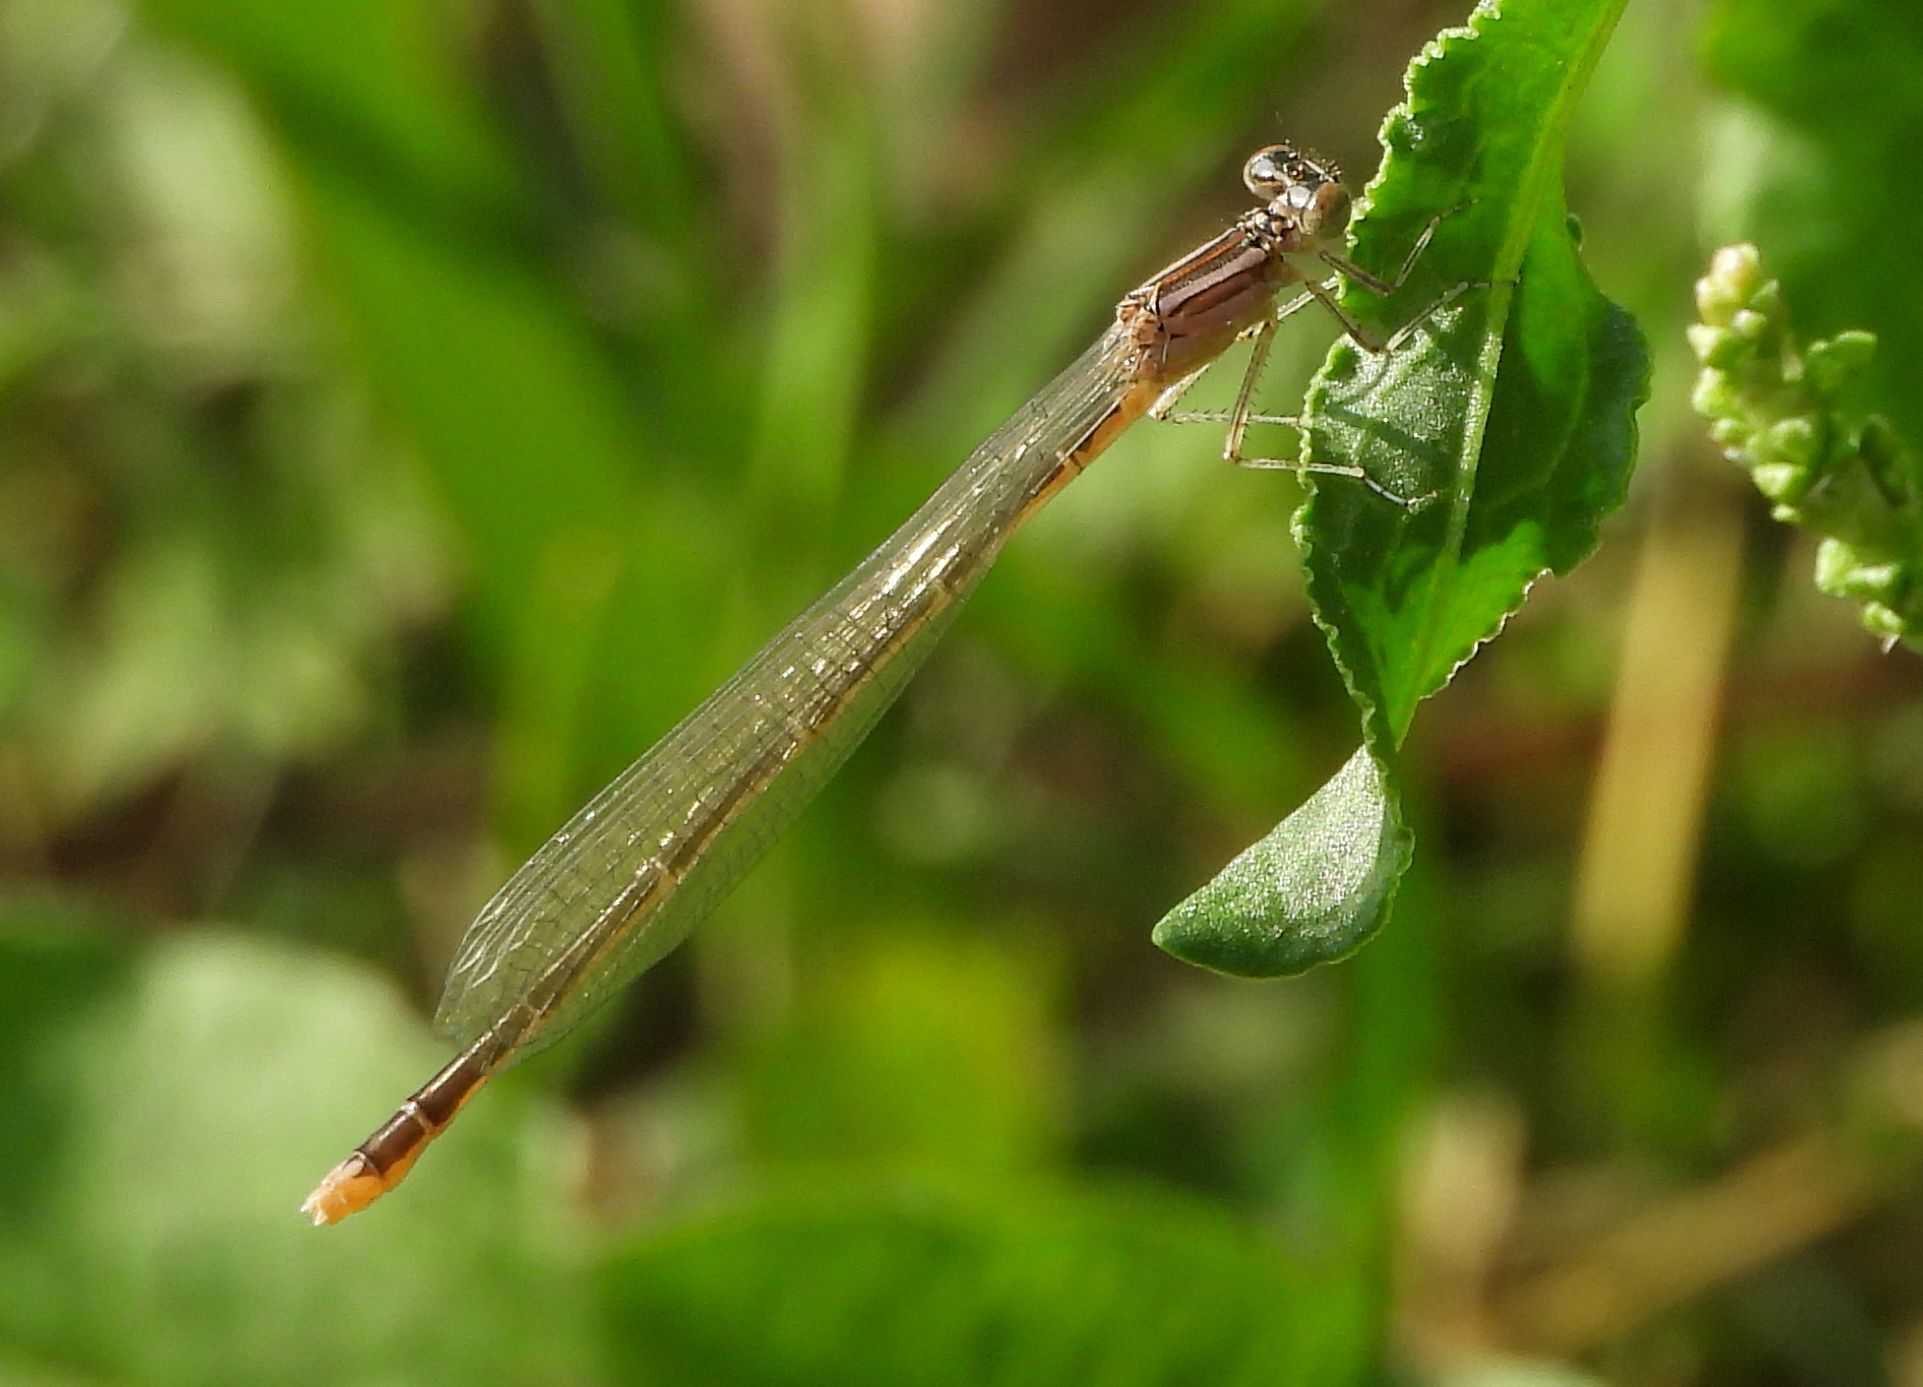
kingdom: Animalia
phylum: Arthropoda
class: Insecta
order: Odonata
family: Coenagrionidae
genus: Enallagma
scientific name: Enallagma exsulans
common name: Stream bluet
